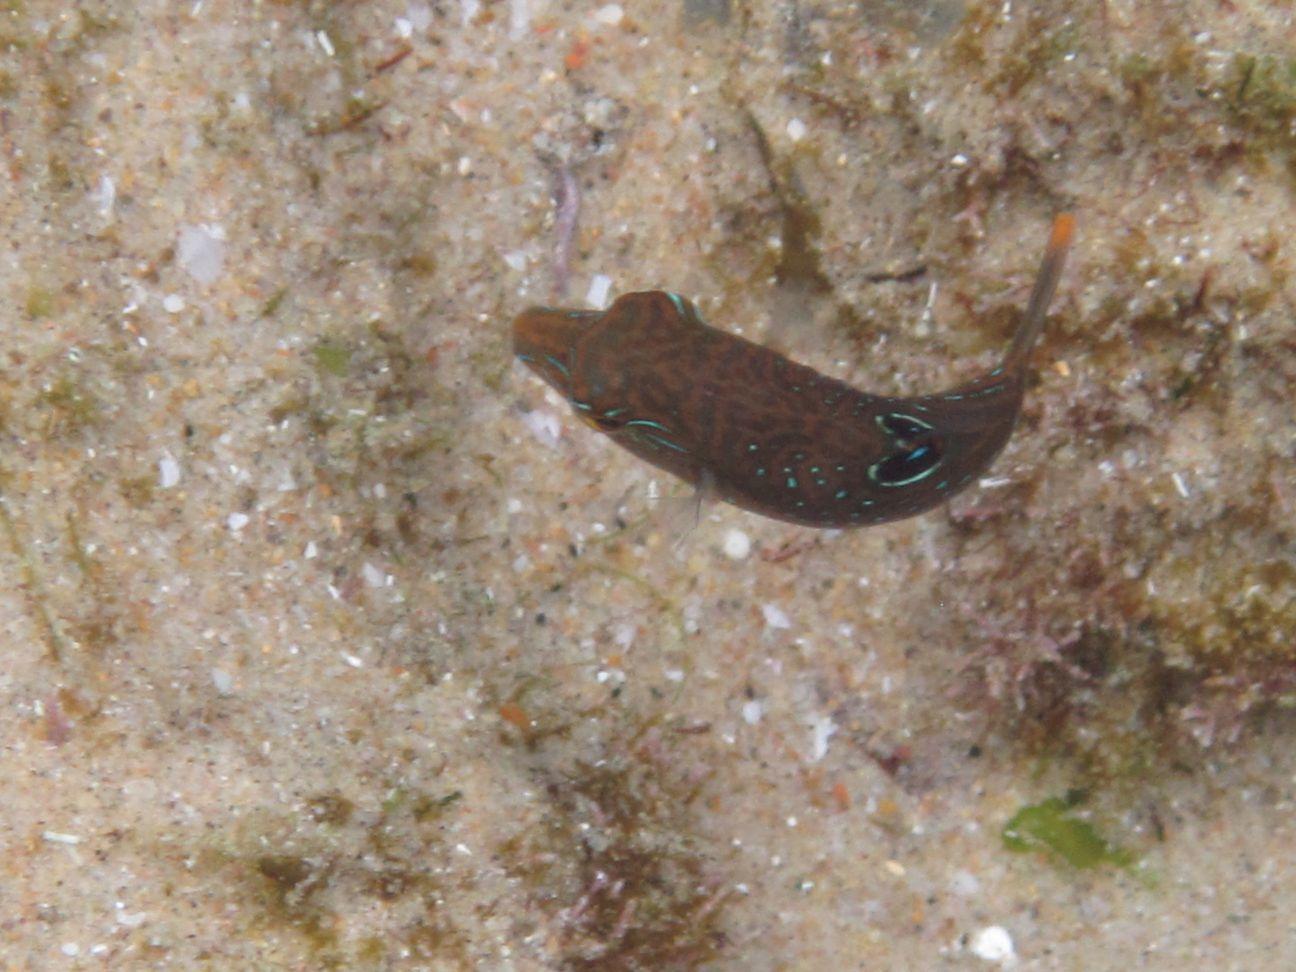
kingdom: Animalia
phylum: Chordata
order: Tetraodontiformes
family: Tetraodontidae
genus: Canthigaster
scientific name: Canthigaster bennetti
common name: Bennett's pufferfish
